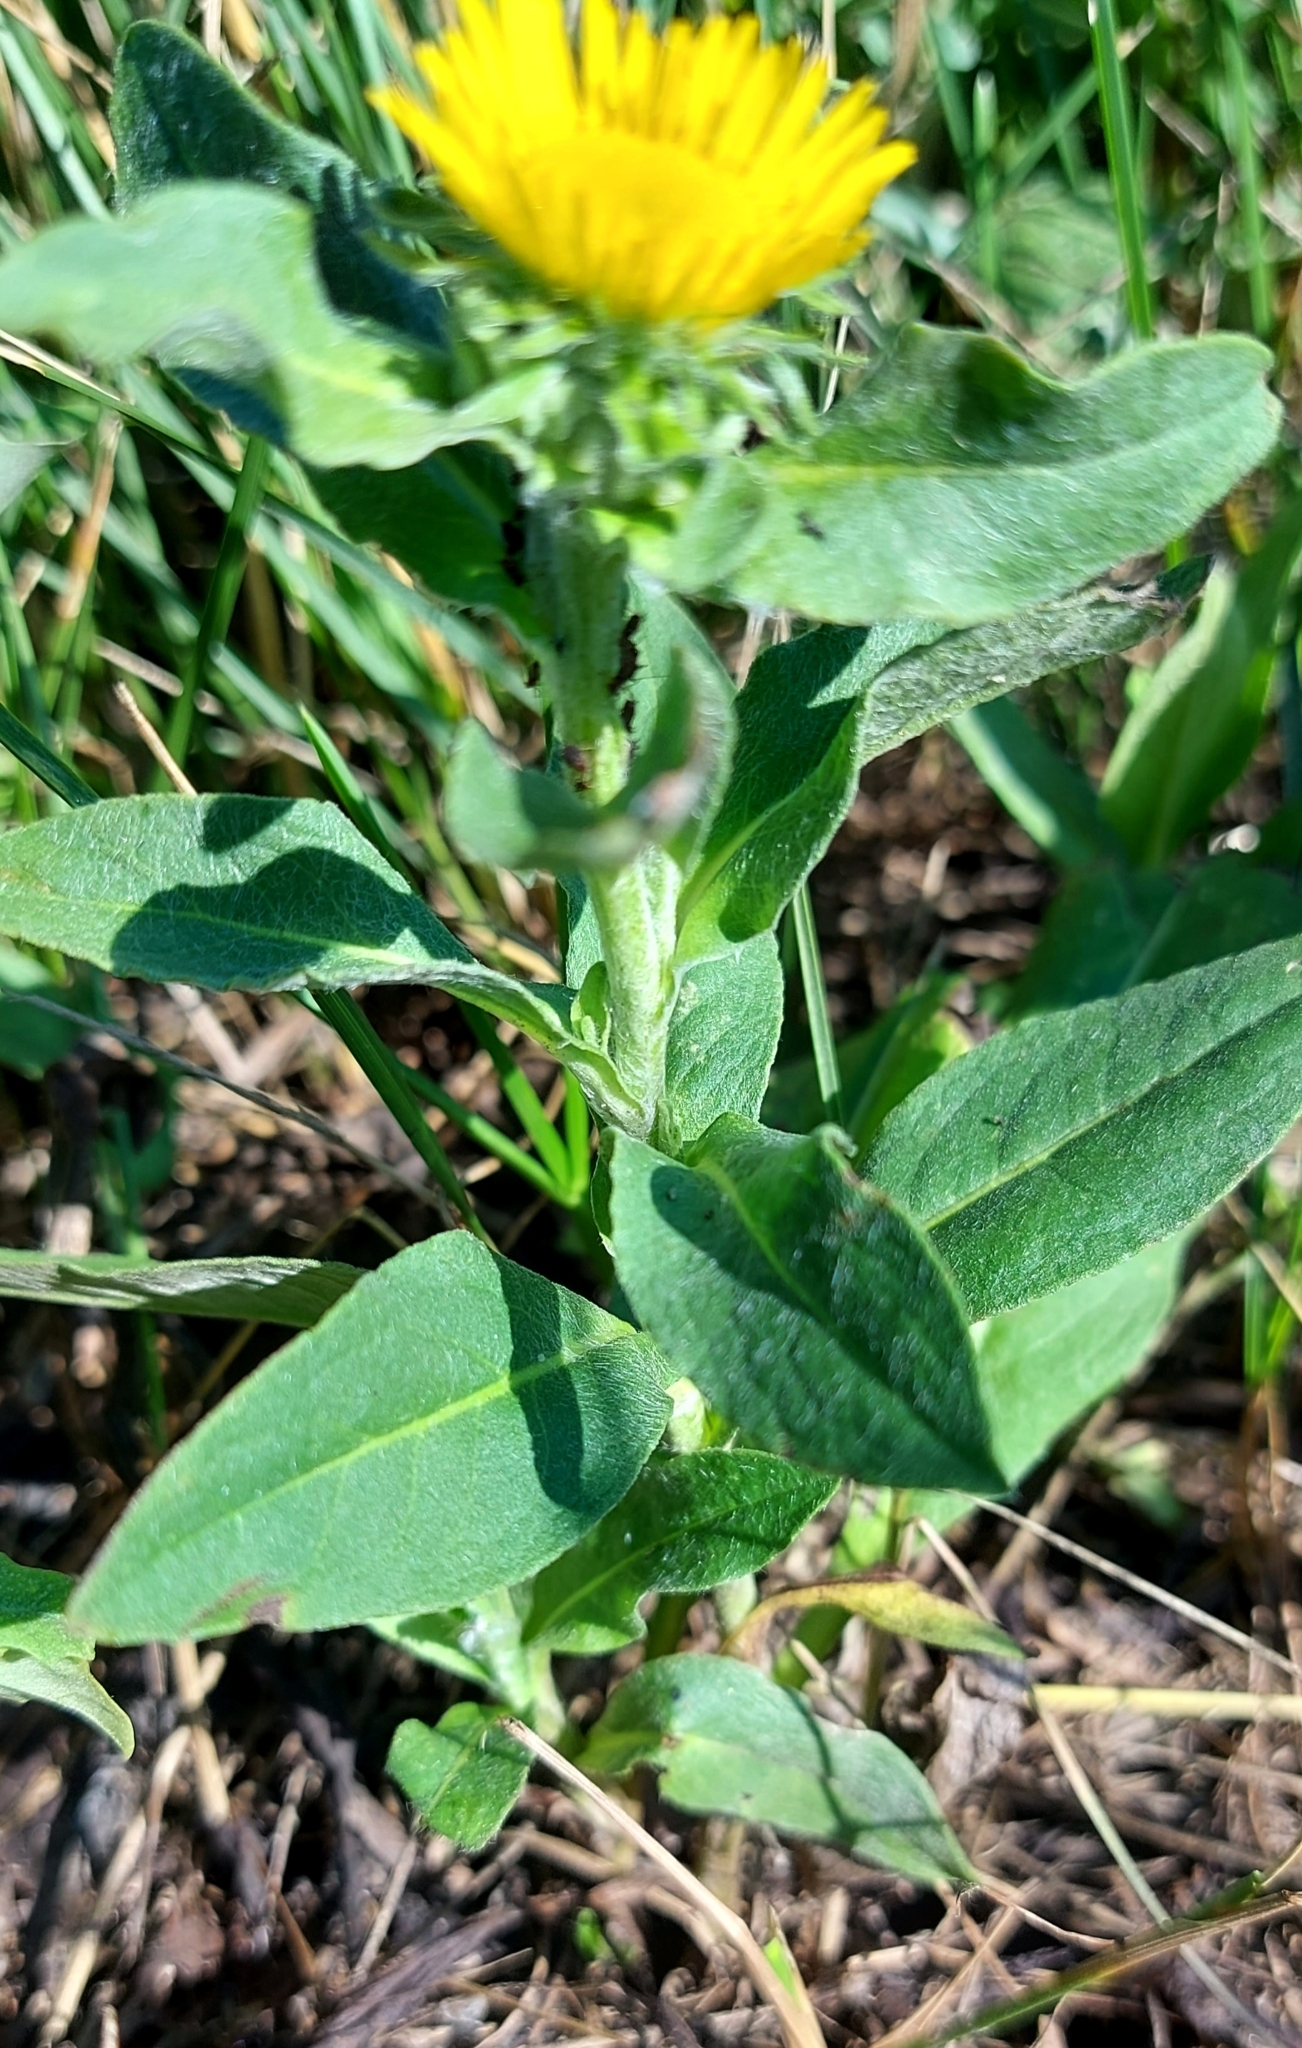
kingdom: Plantae
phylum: Tracheophyta
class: Magnoliopsida
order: Asterales
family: Asteraceae
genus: Pentanema
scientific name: Pentanema britannicum
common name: British elecampane
